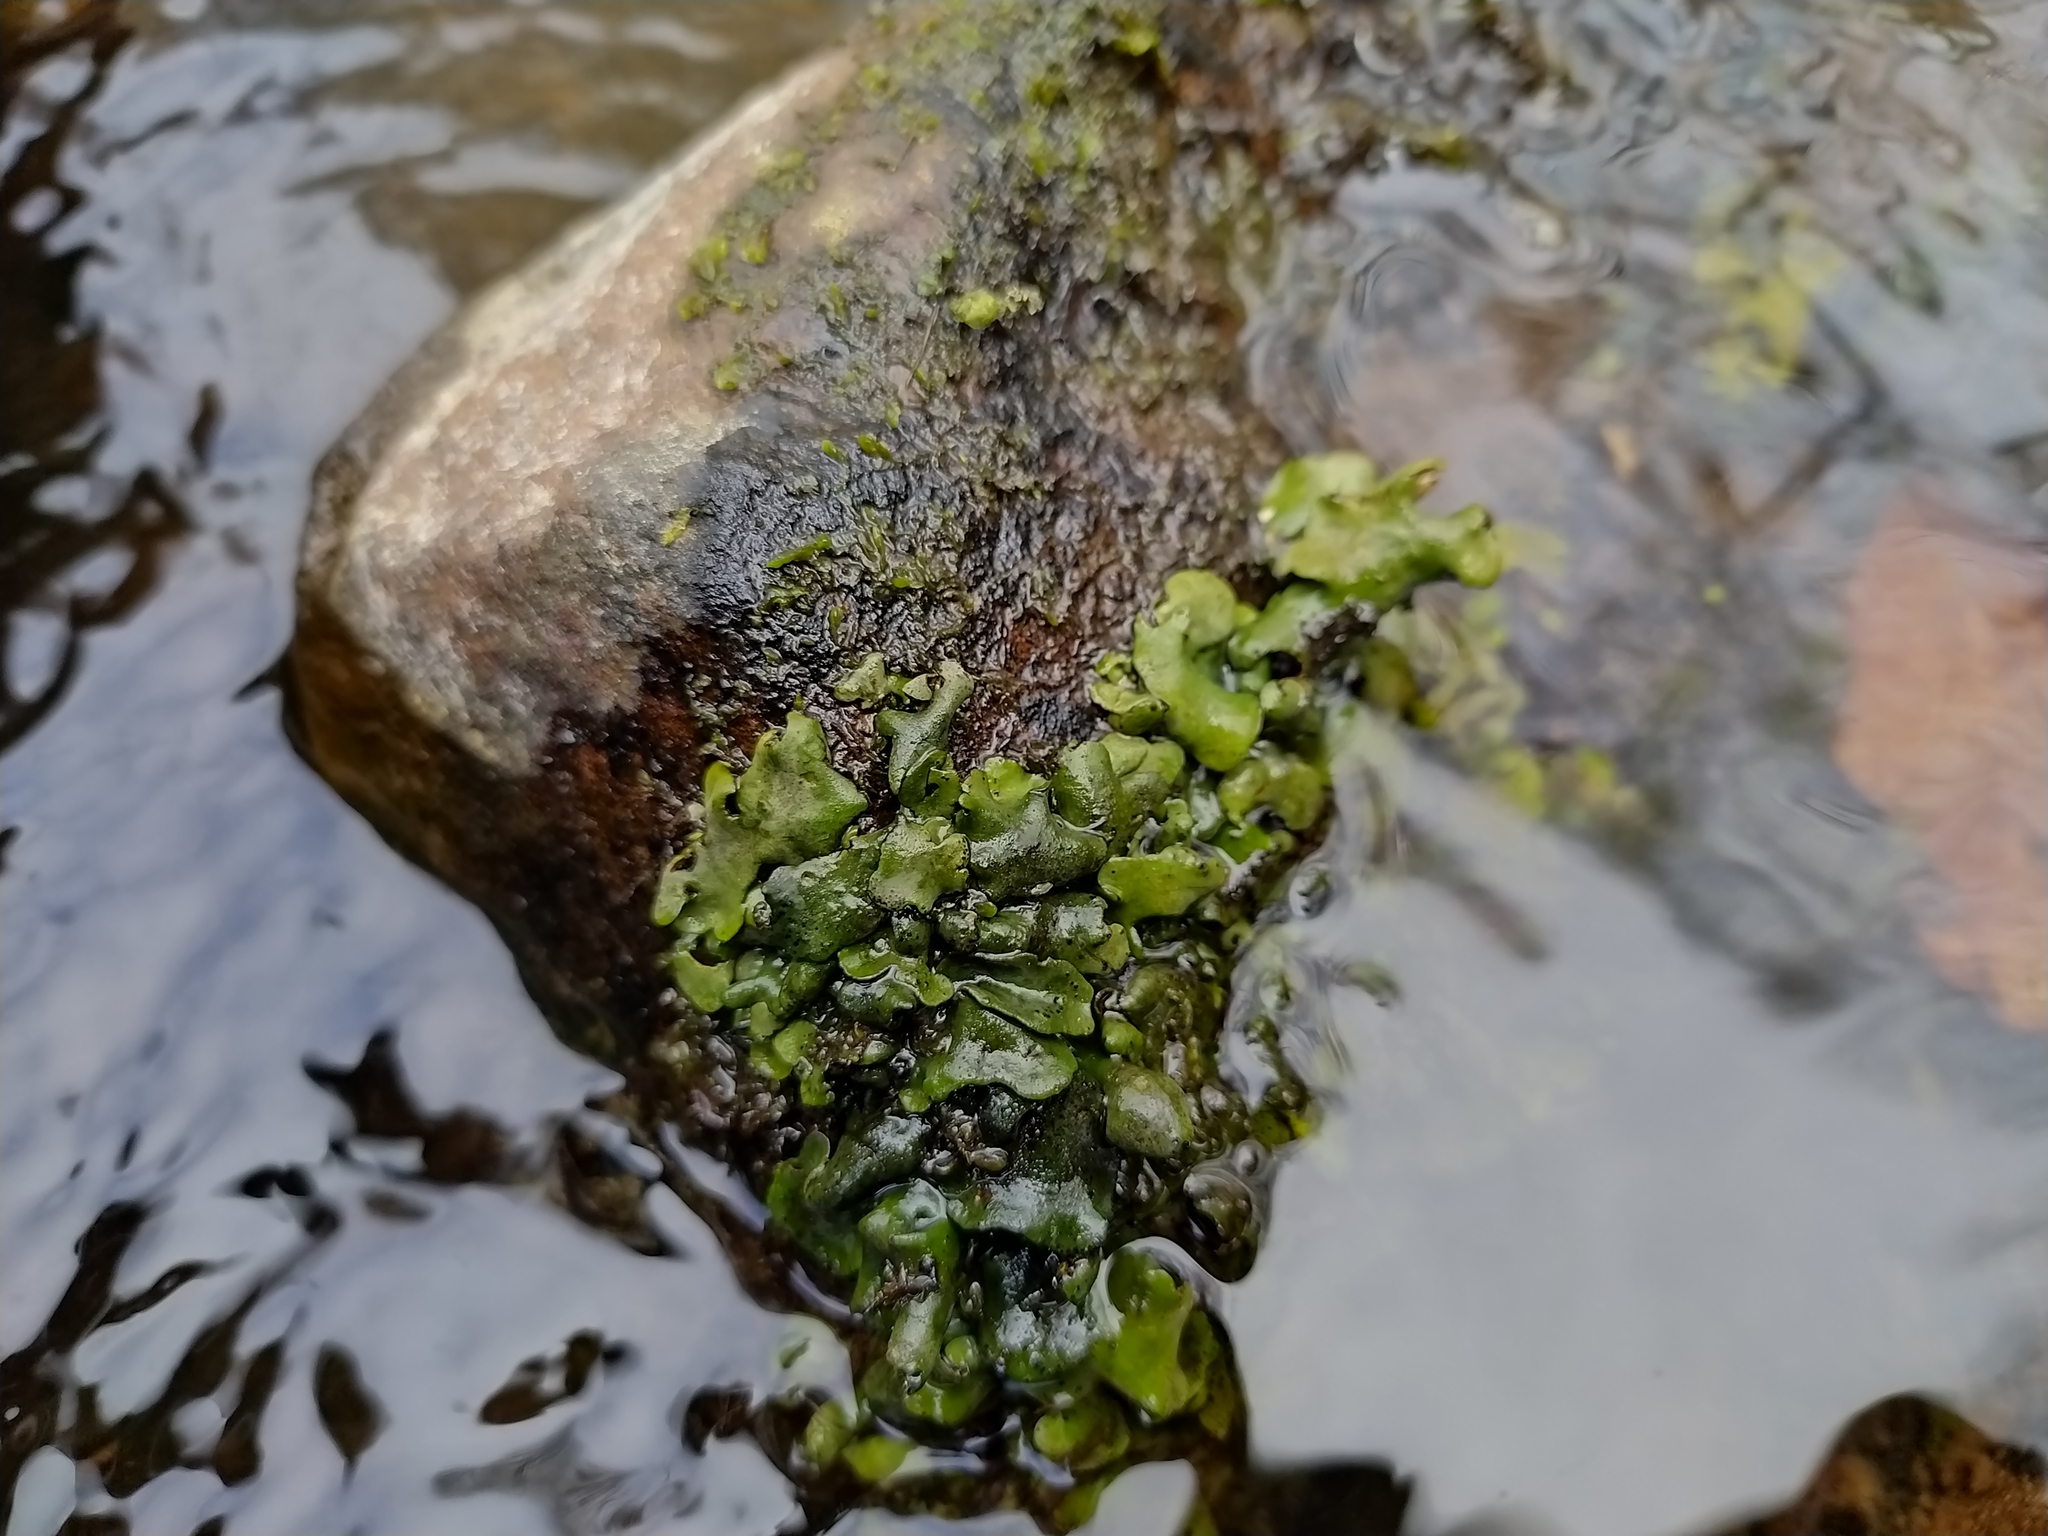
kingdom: Fungi
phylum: Ascomycota
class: Eurotiomycetes
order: Verrucariales
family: Verrucariaceae
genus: Dermatocarpon
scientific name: Dermatocarpon luridum
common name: Brook stippleback lichen
